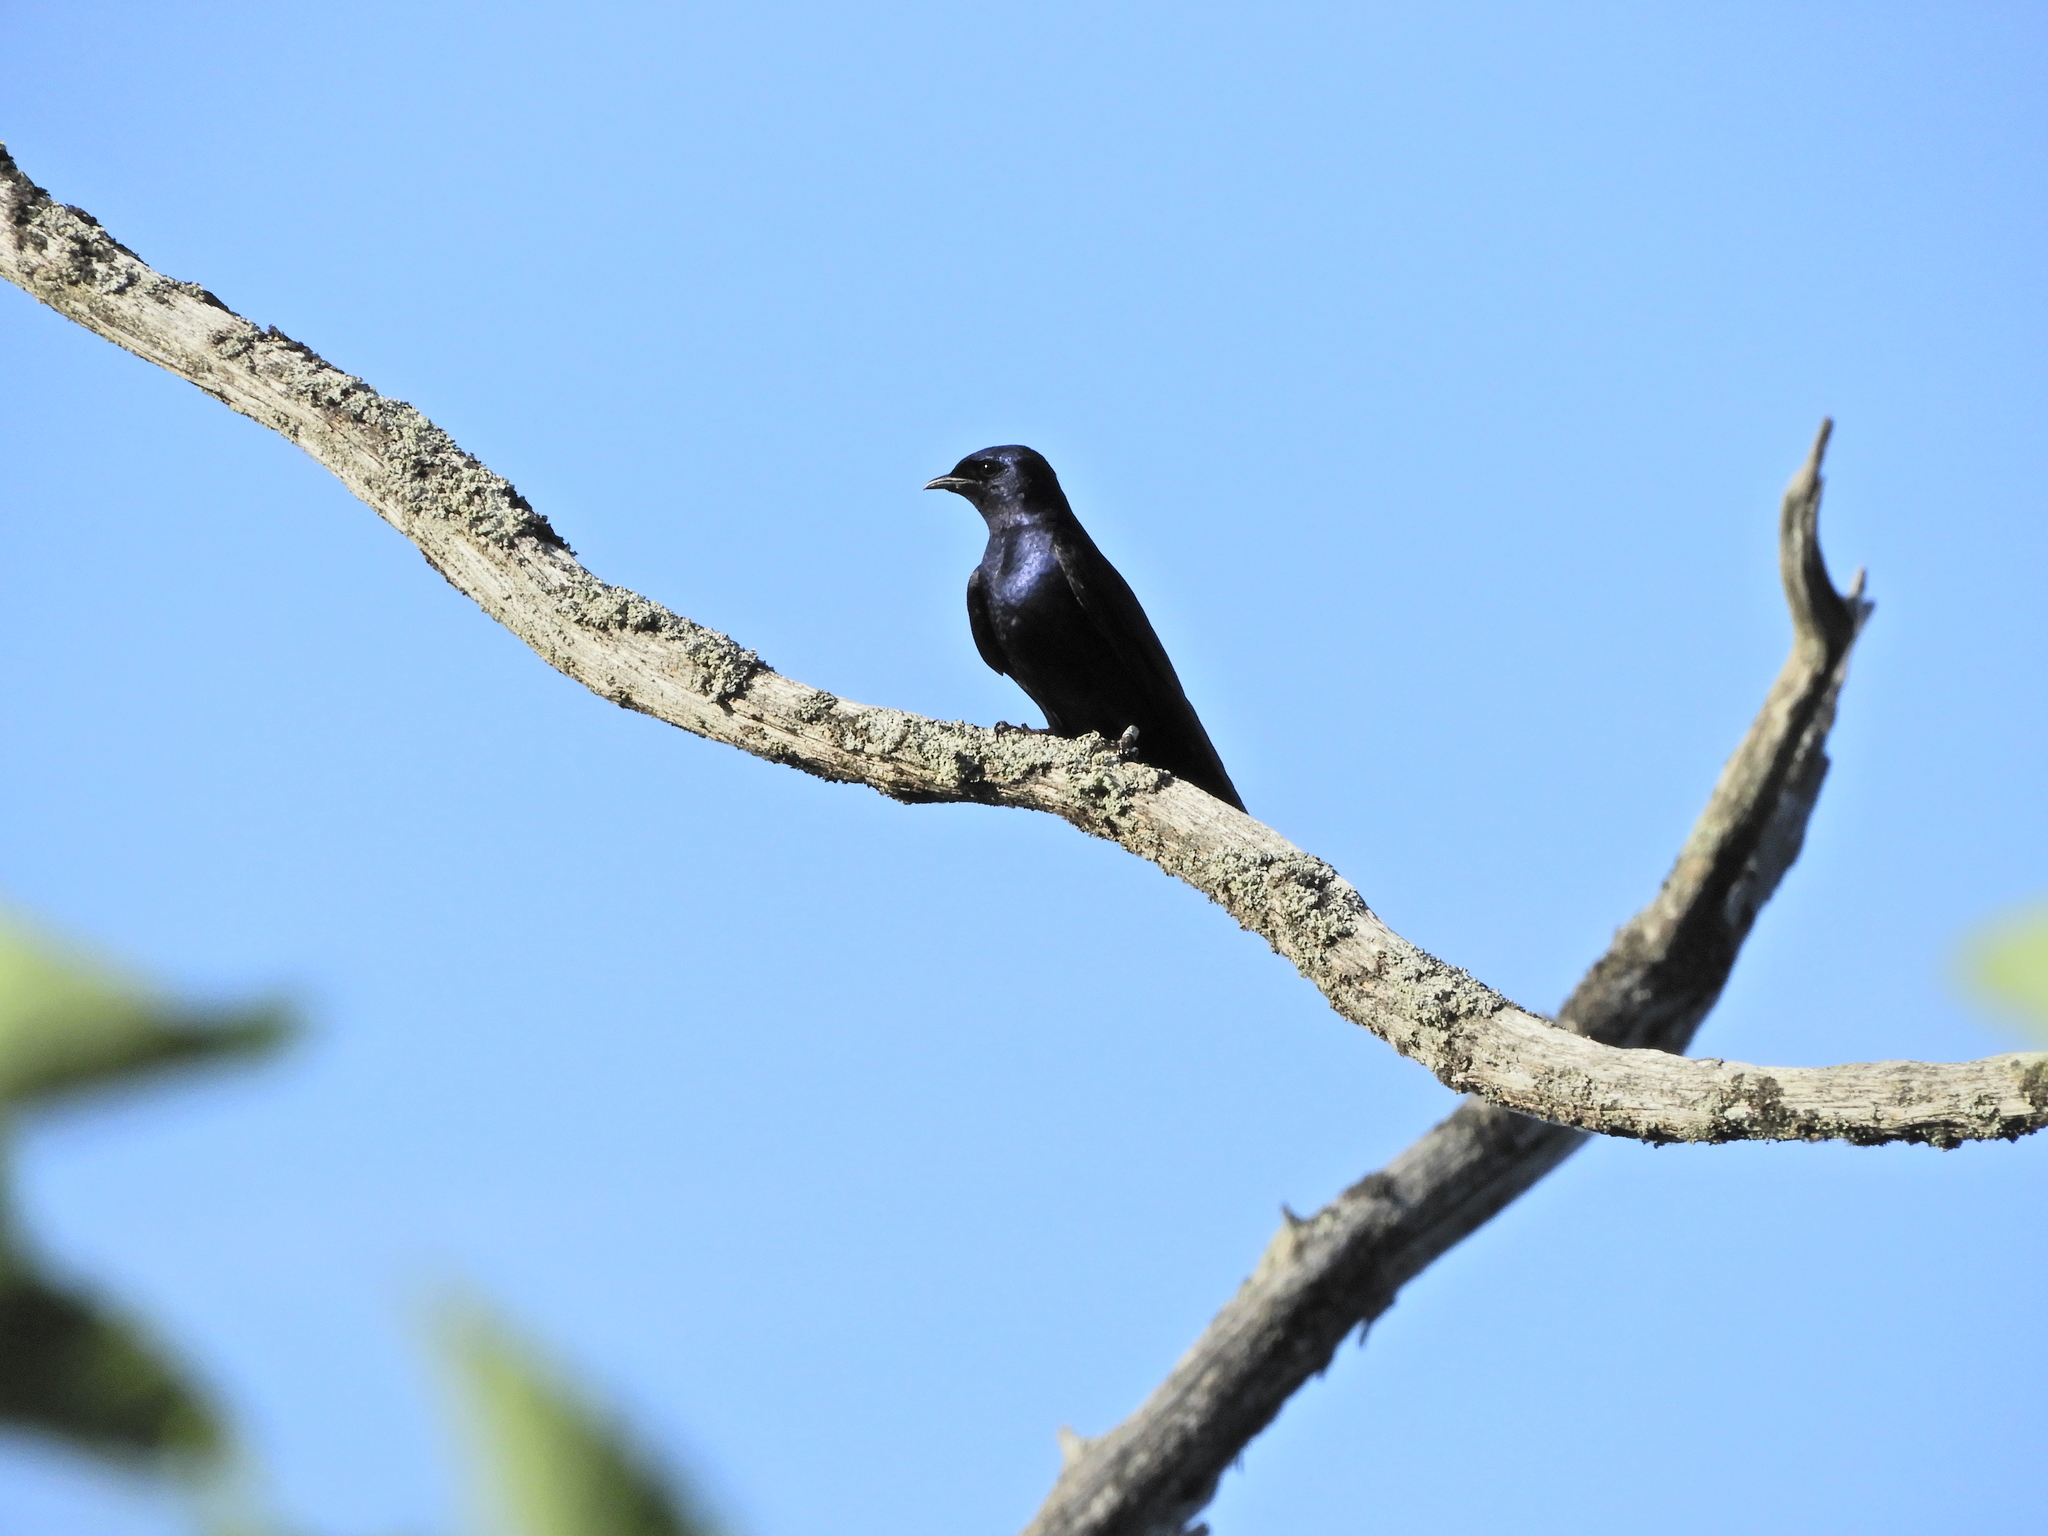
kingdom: Animalia
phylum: Chordata
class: Aves
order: Passeriformes
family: Hirundinidae
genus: Progne
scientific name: Progne subis
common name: Purple martin
